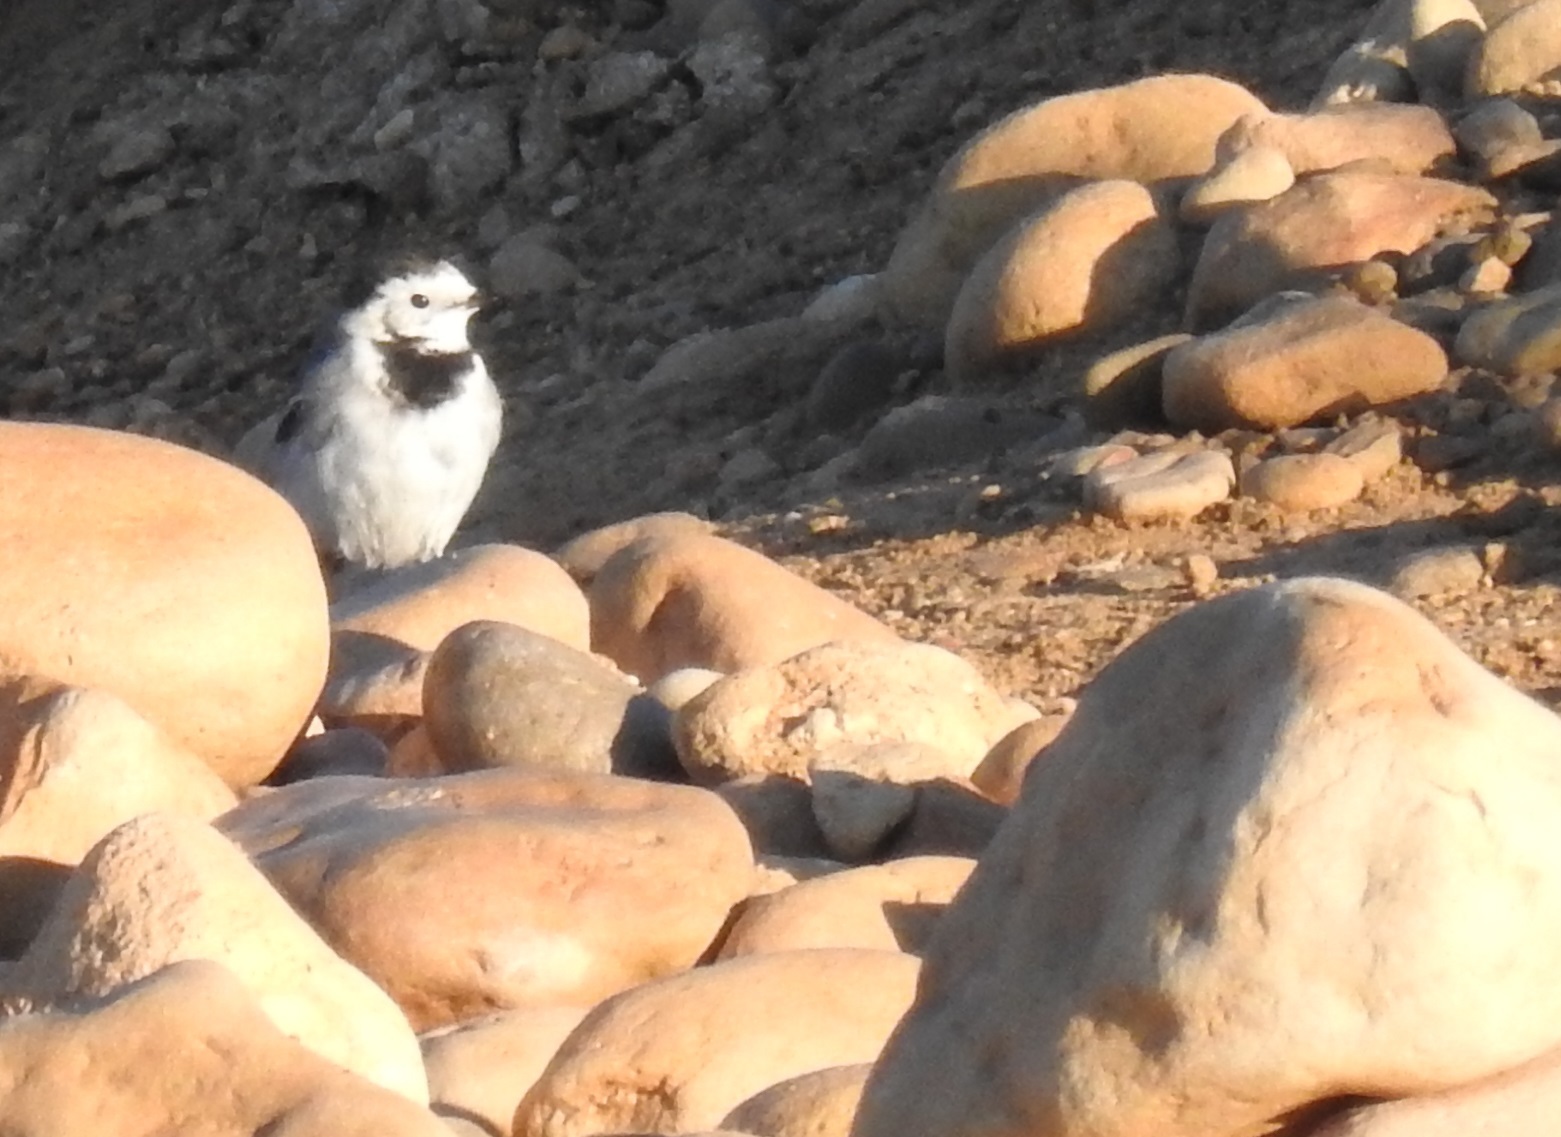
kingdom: Animalia
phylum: Chordata
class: Aves
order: Passeriformes
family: Motacillidae
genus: Motacilla
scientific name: Motacilla alba
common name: White wagtail
